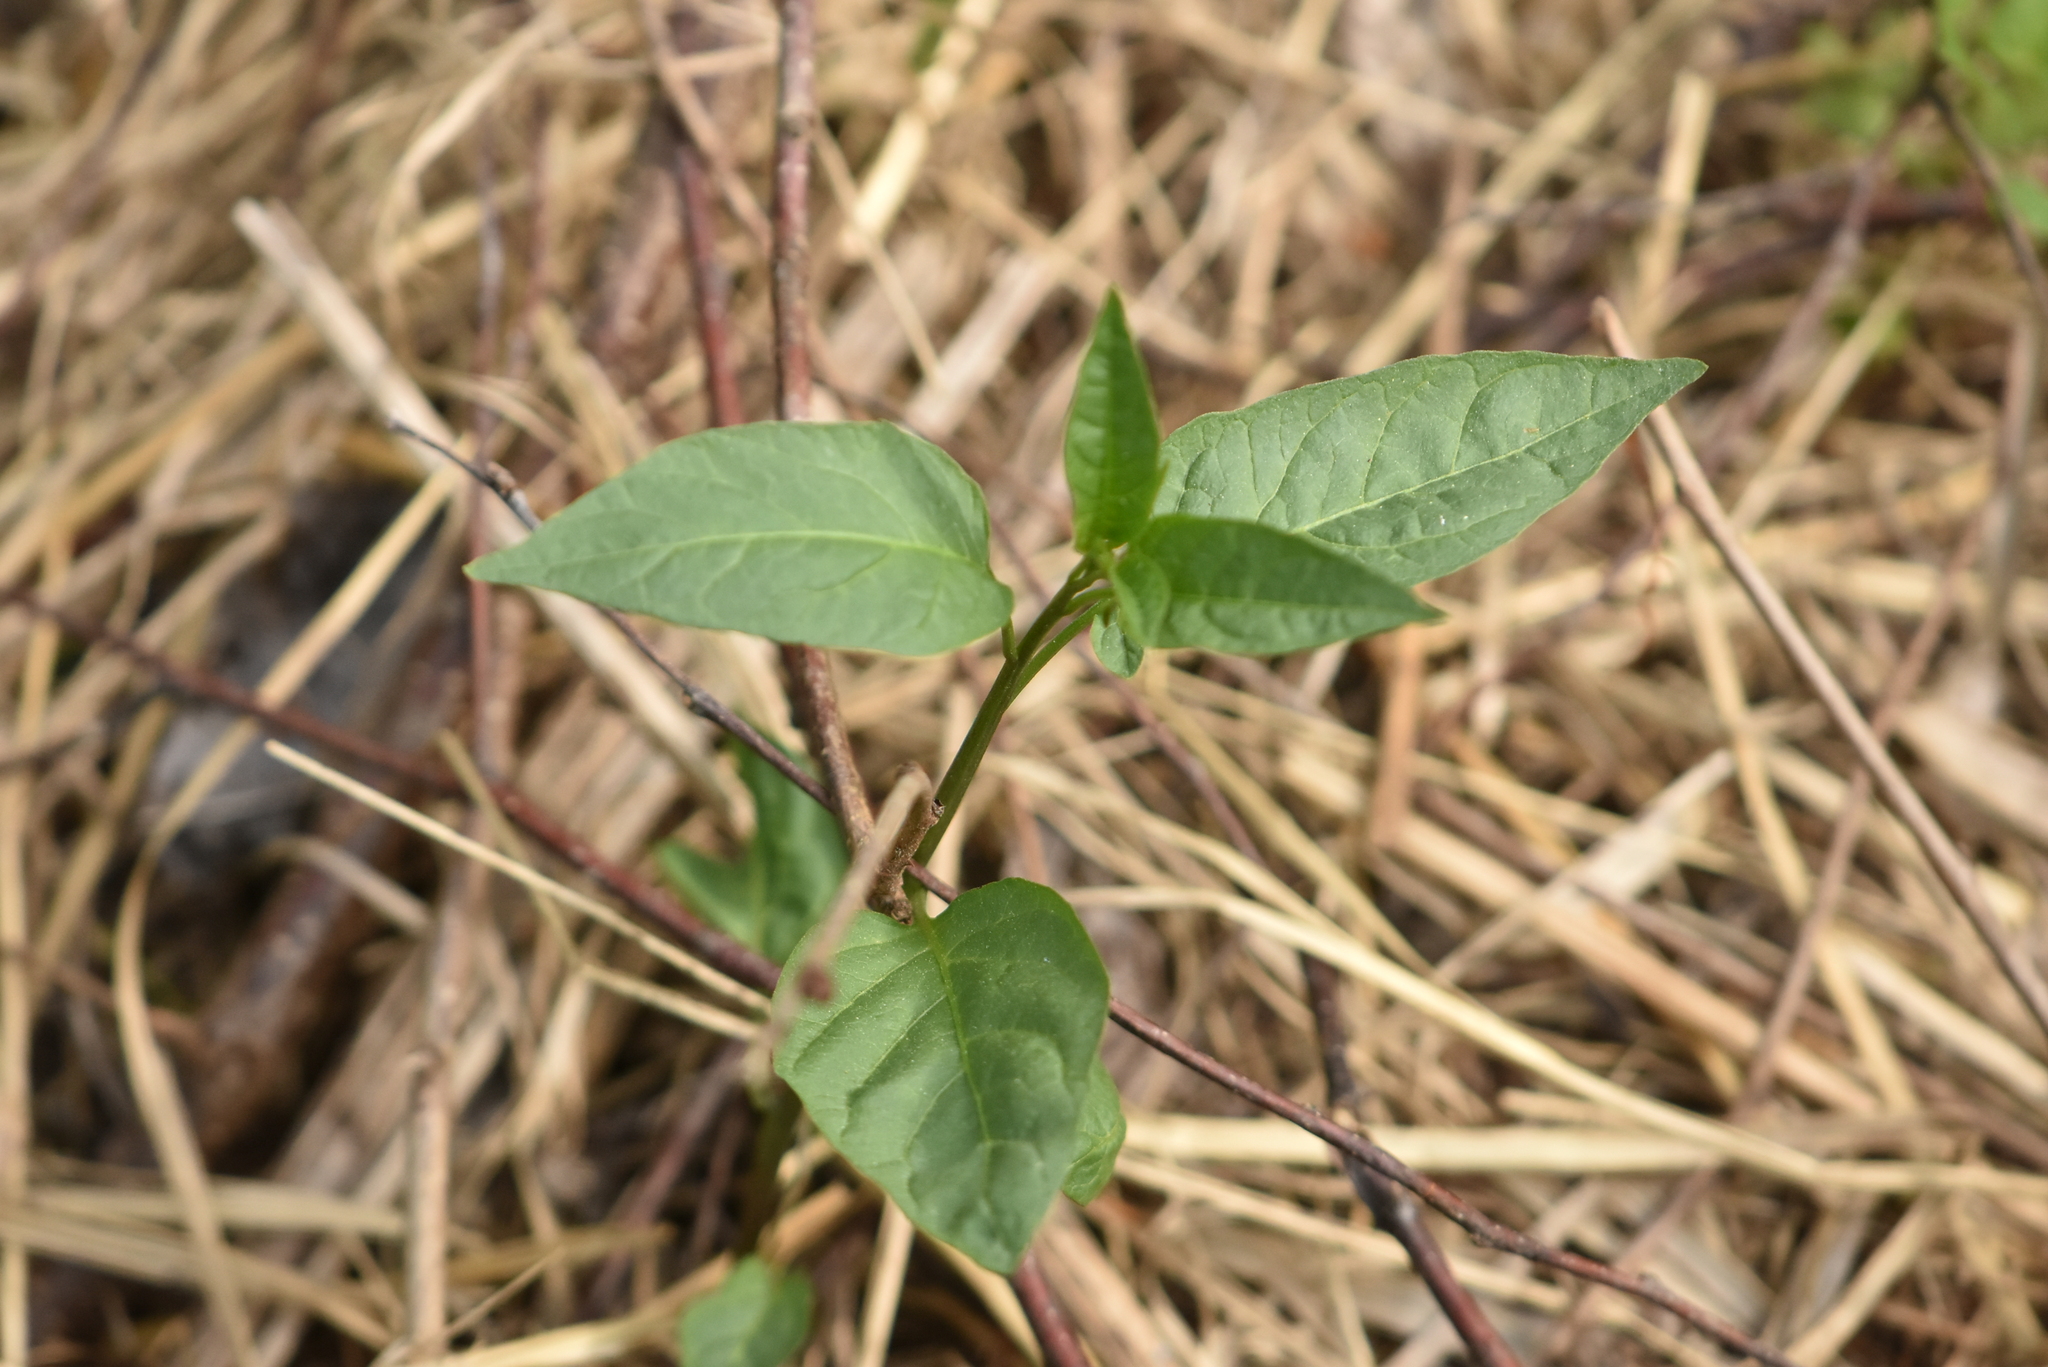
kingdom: Plantae
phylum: Tracheophyta
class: Magnoliopsida
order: Solanales
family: Solanaceae
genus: Solanum
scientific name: Solanum dulcamara
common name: Climbing nightshade
